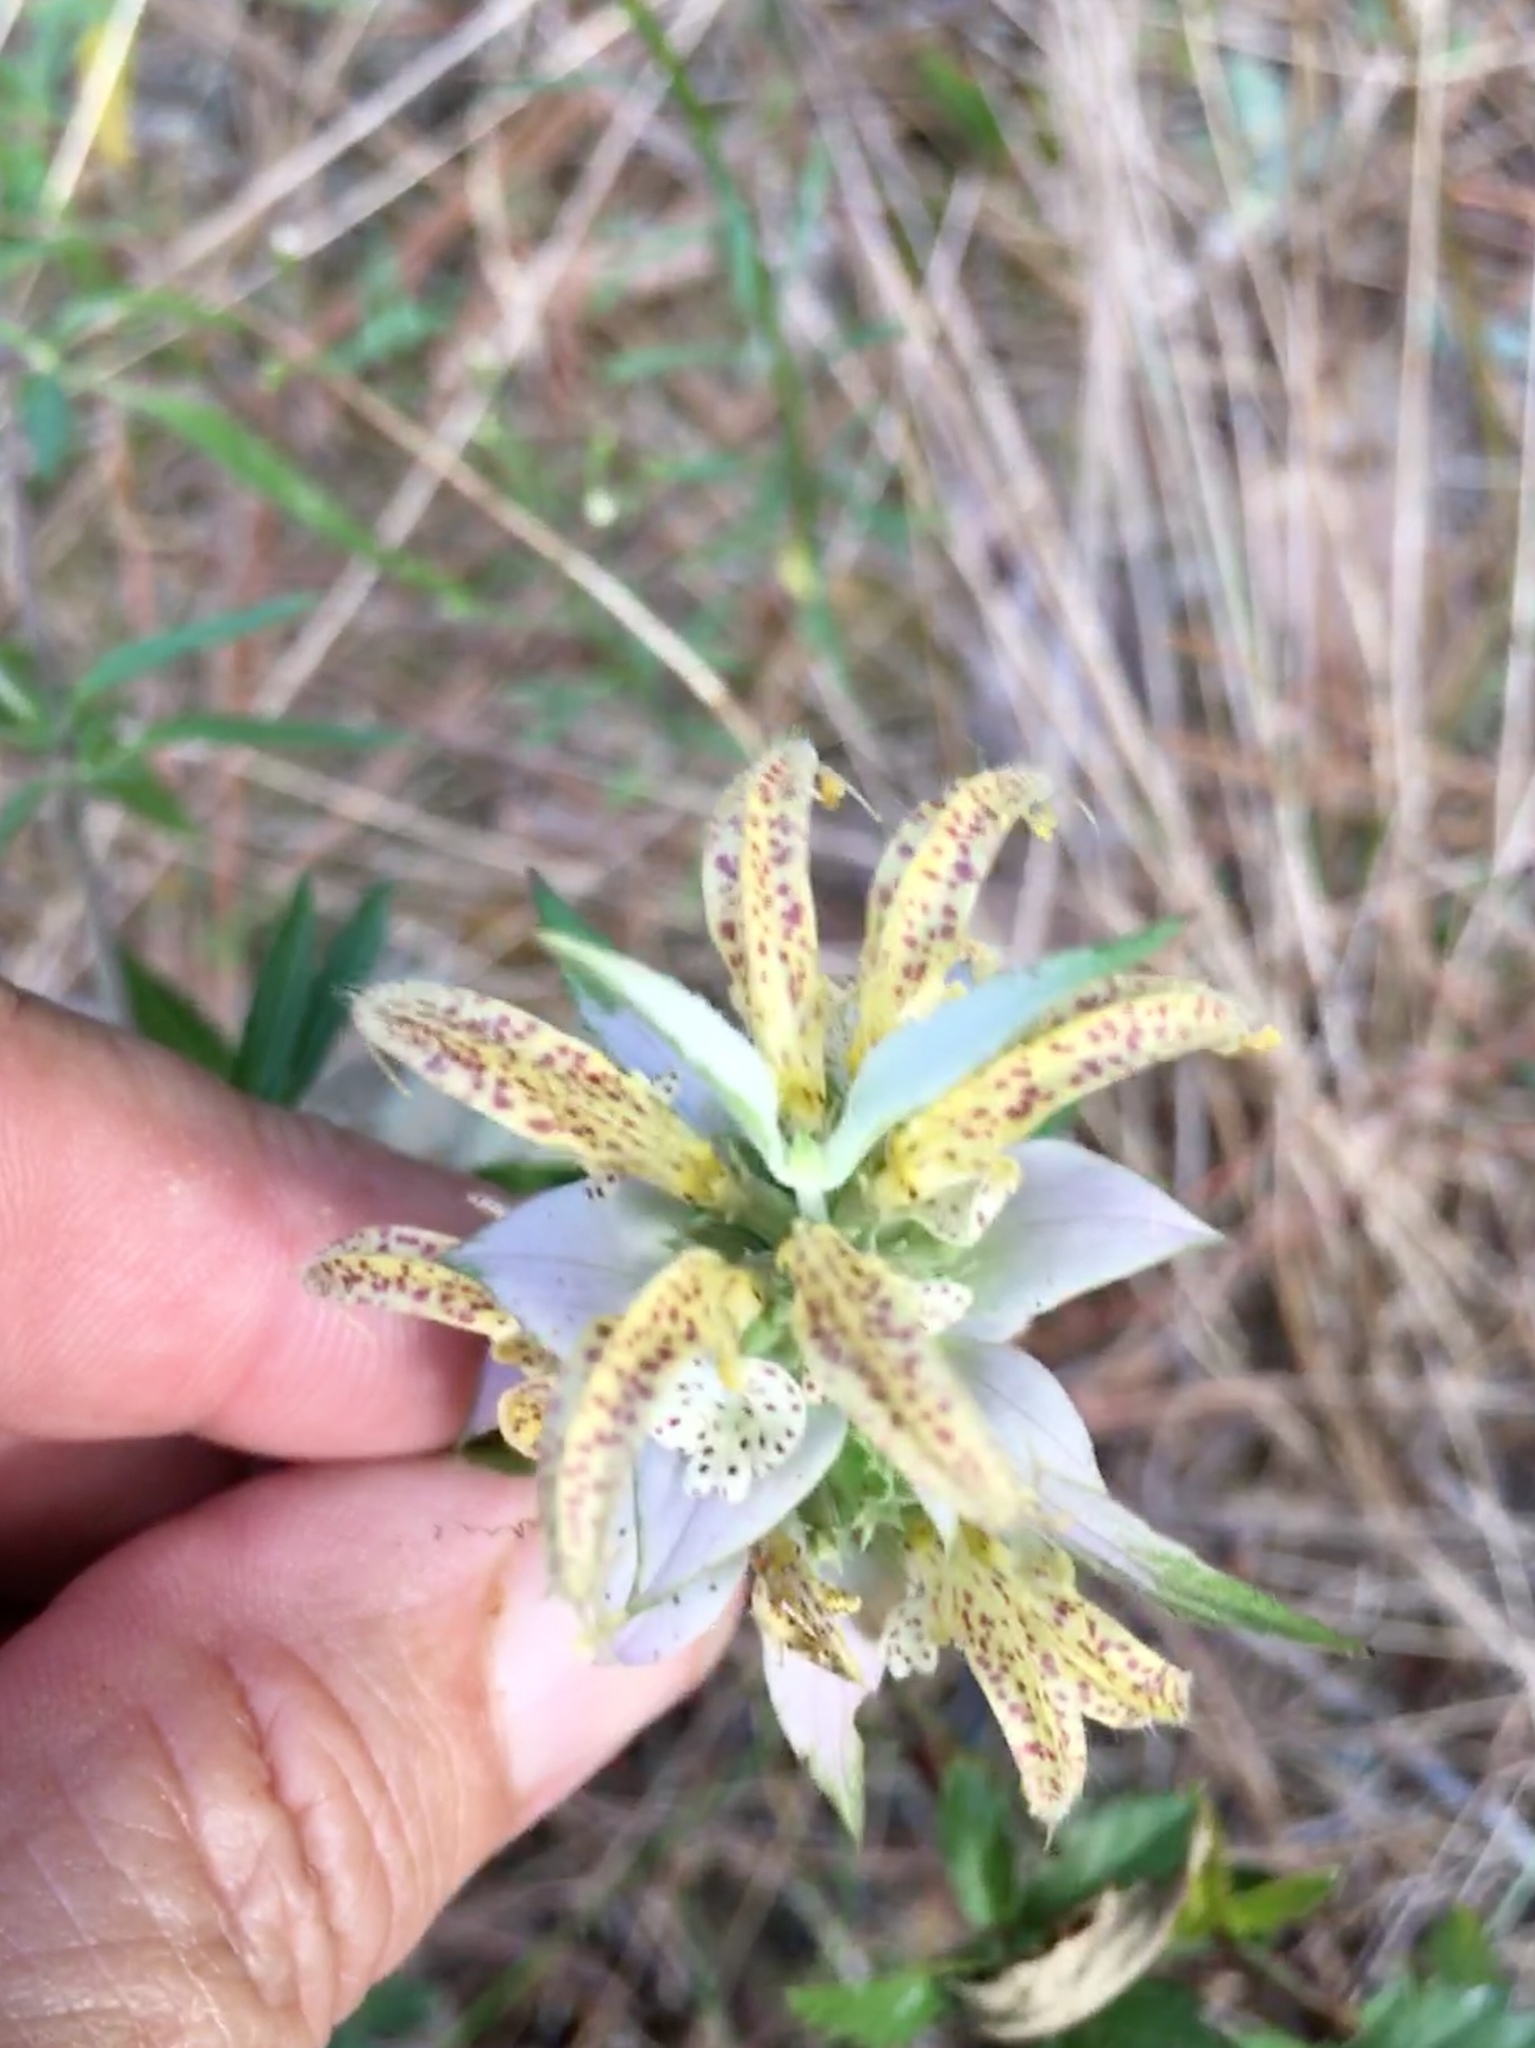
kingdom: Plantae
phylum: Tracheophyta
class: Magnoliopsida
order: Lamiales
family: Lamiaceae
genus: Monarda
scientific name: Monarda punctata
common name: Dotted monarda
